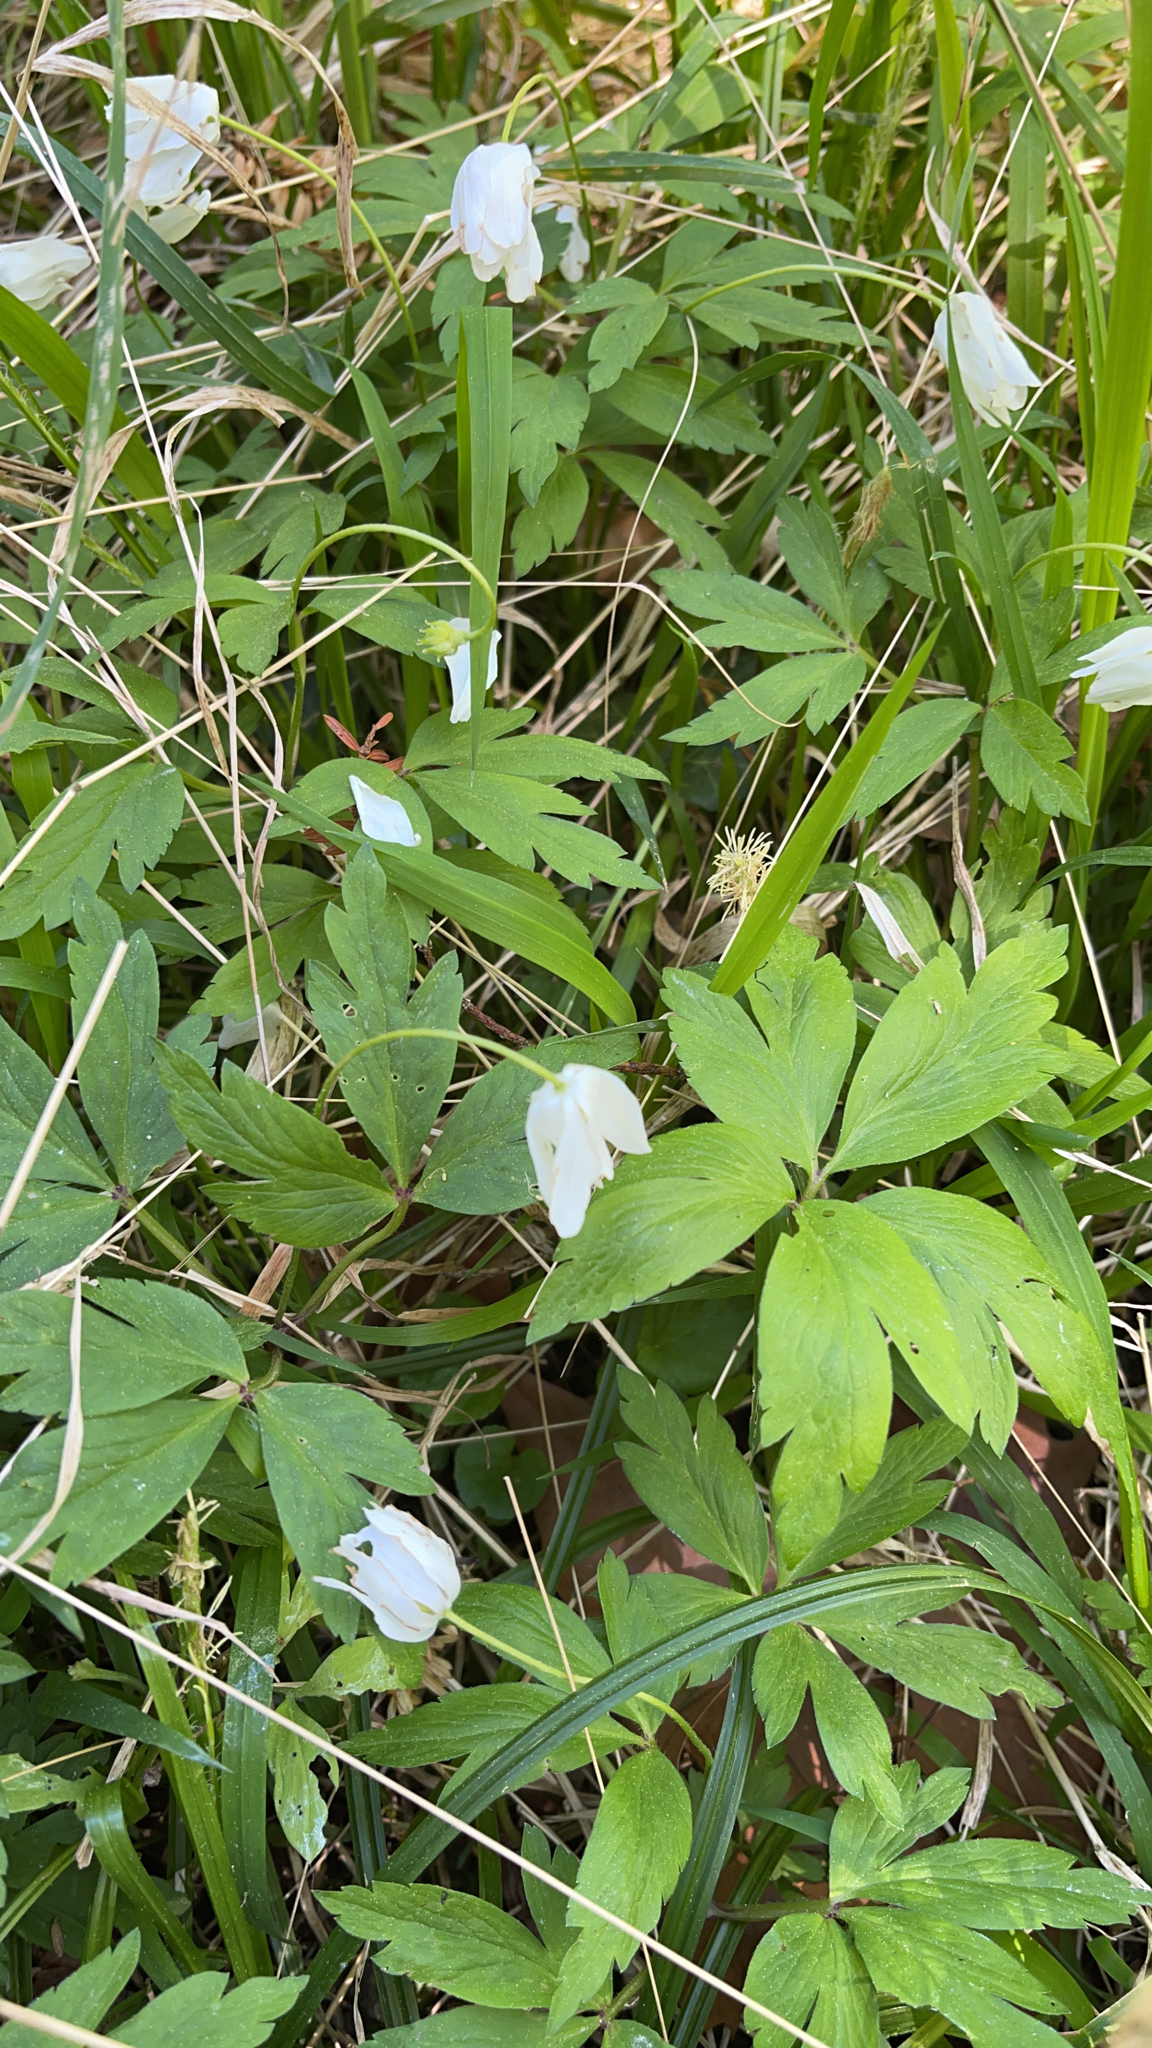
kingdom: Plantae
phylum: Tracheophyta
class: Magnoliopsida
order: Ranunculales
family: Ranunculaceae
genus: Anemone
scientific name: Anemone nemorosa
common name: Wood anemone
